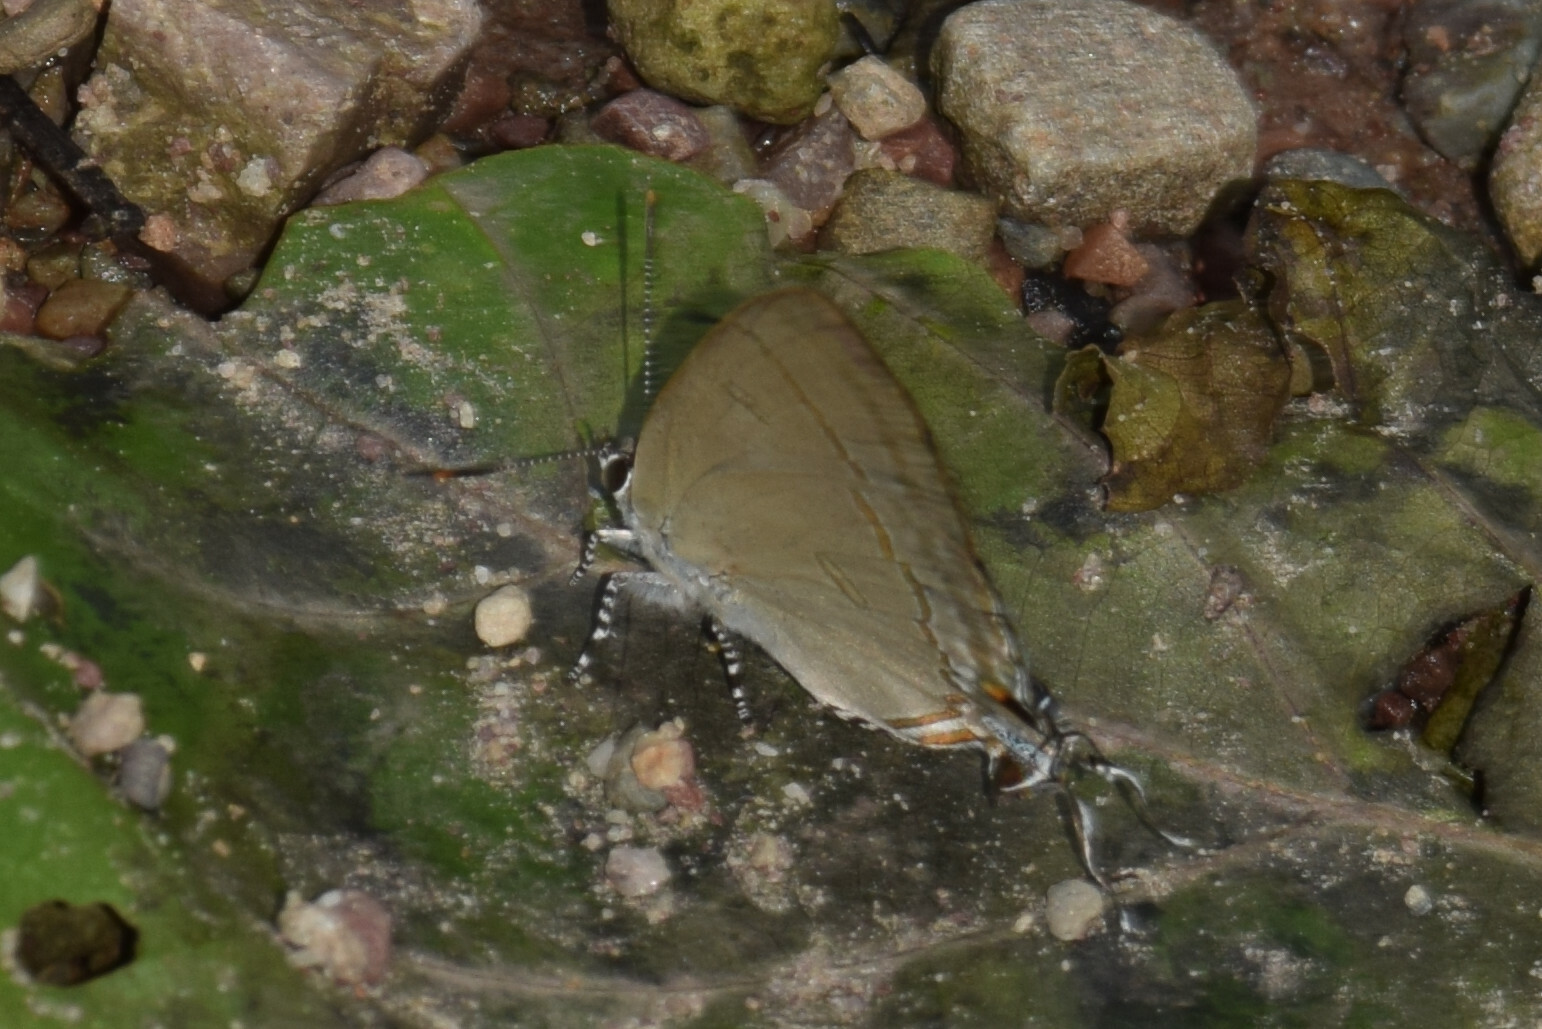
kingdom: Animalia
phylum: Arthropoda
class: Insecta
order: Lepidoptera
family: Lycaenidae
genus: Hypolycaena
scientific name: Hypolycaena erylus
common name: Common tit
